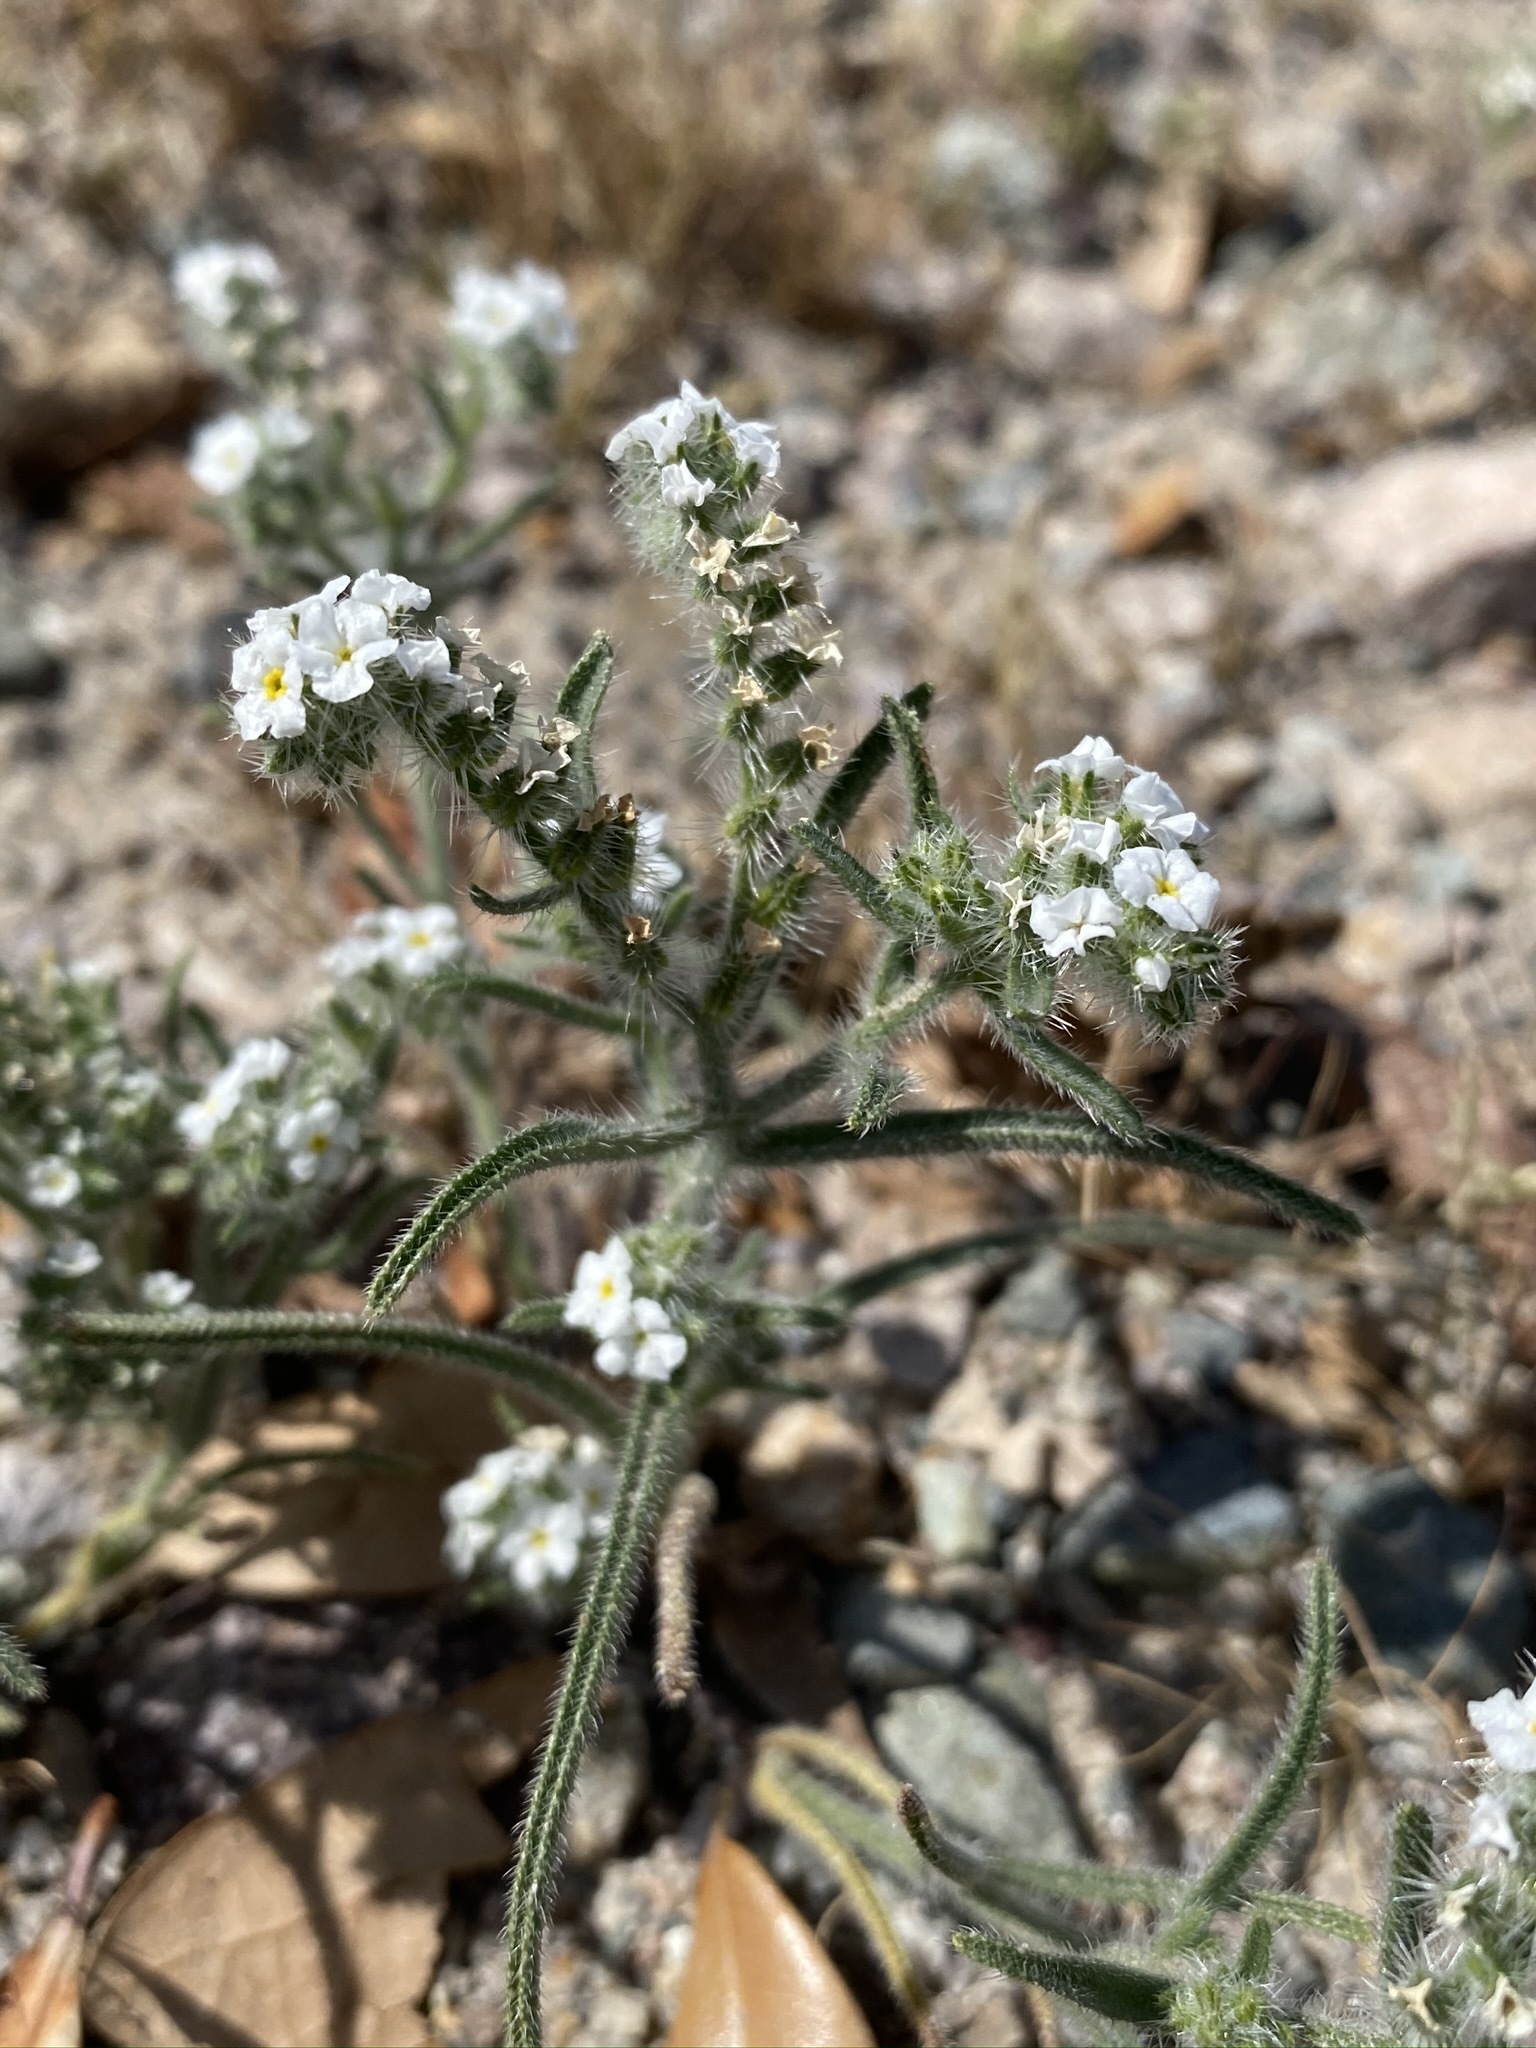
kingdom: Plantae
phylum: Tracheophyta
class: Magnoliopsida
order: Boraginales
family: Boraginaceae
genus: Johnstonella
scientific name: Johnstonella angustifolia
